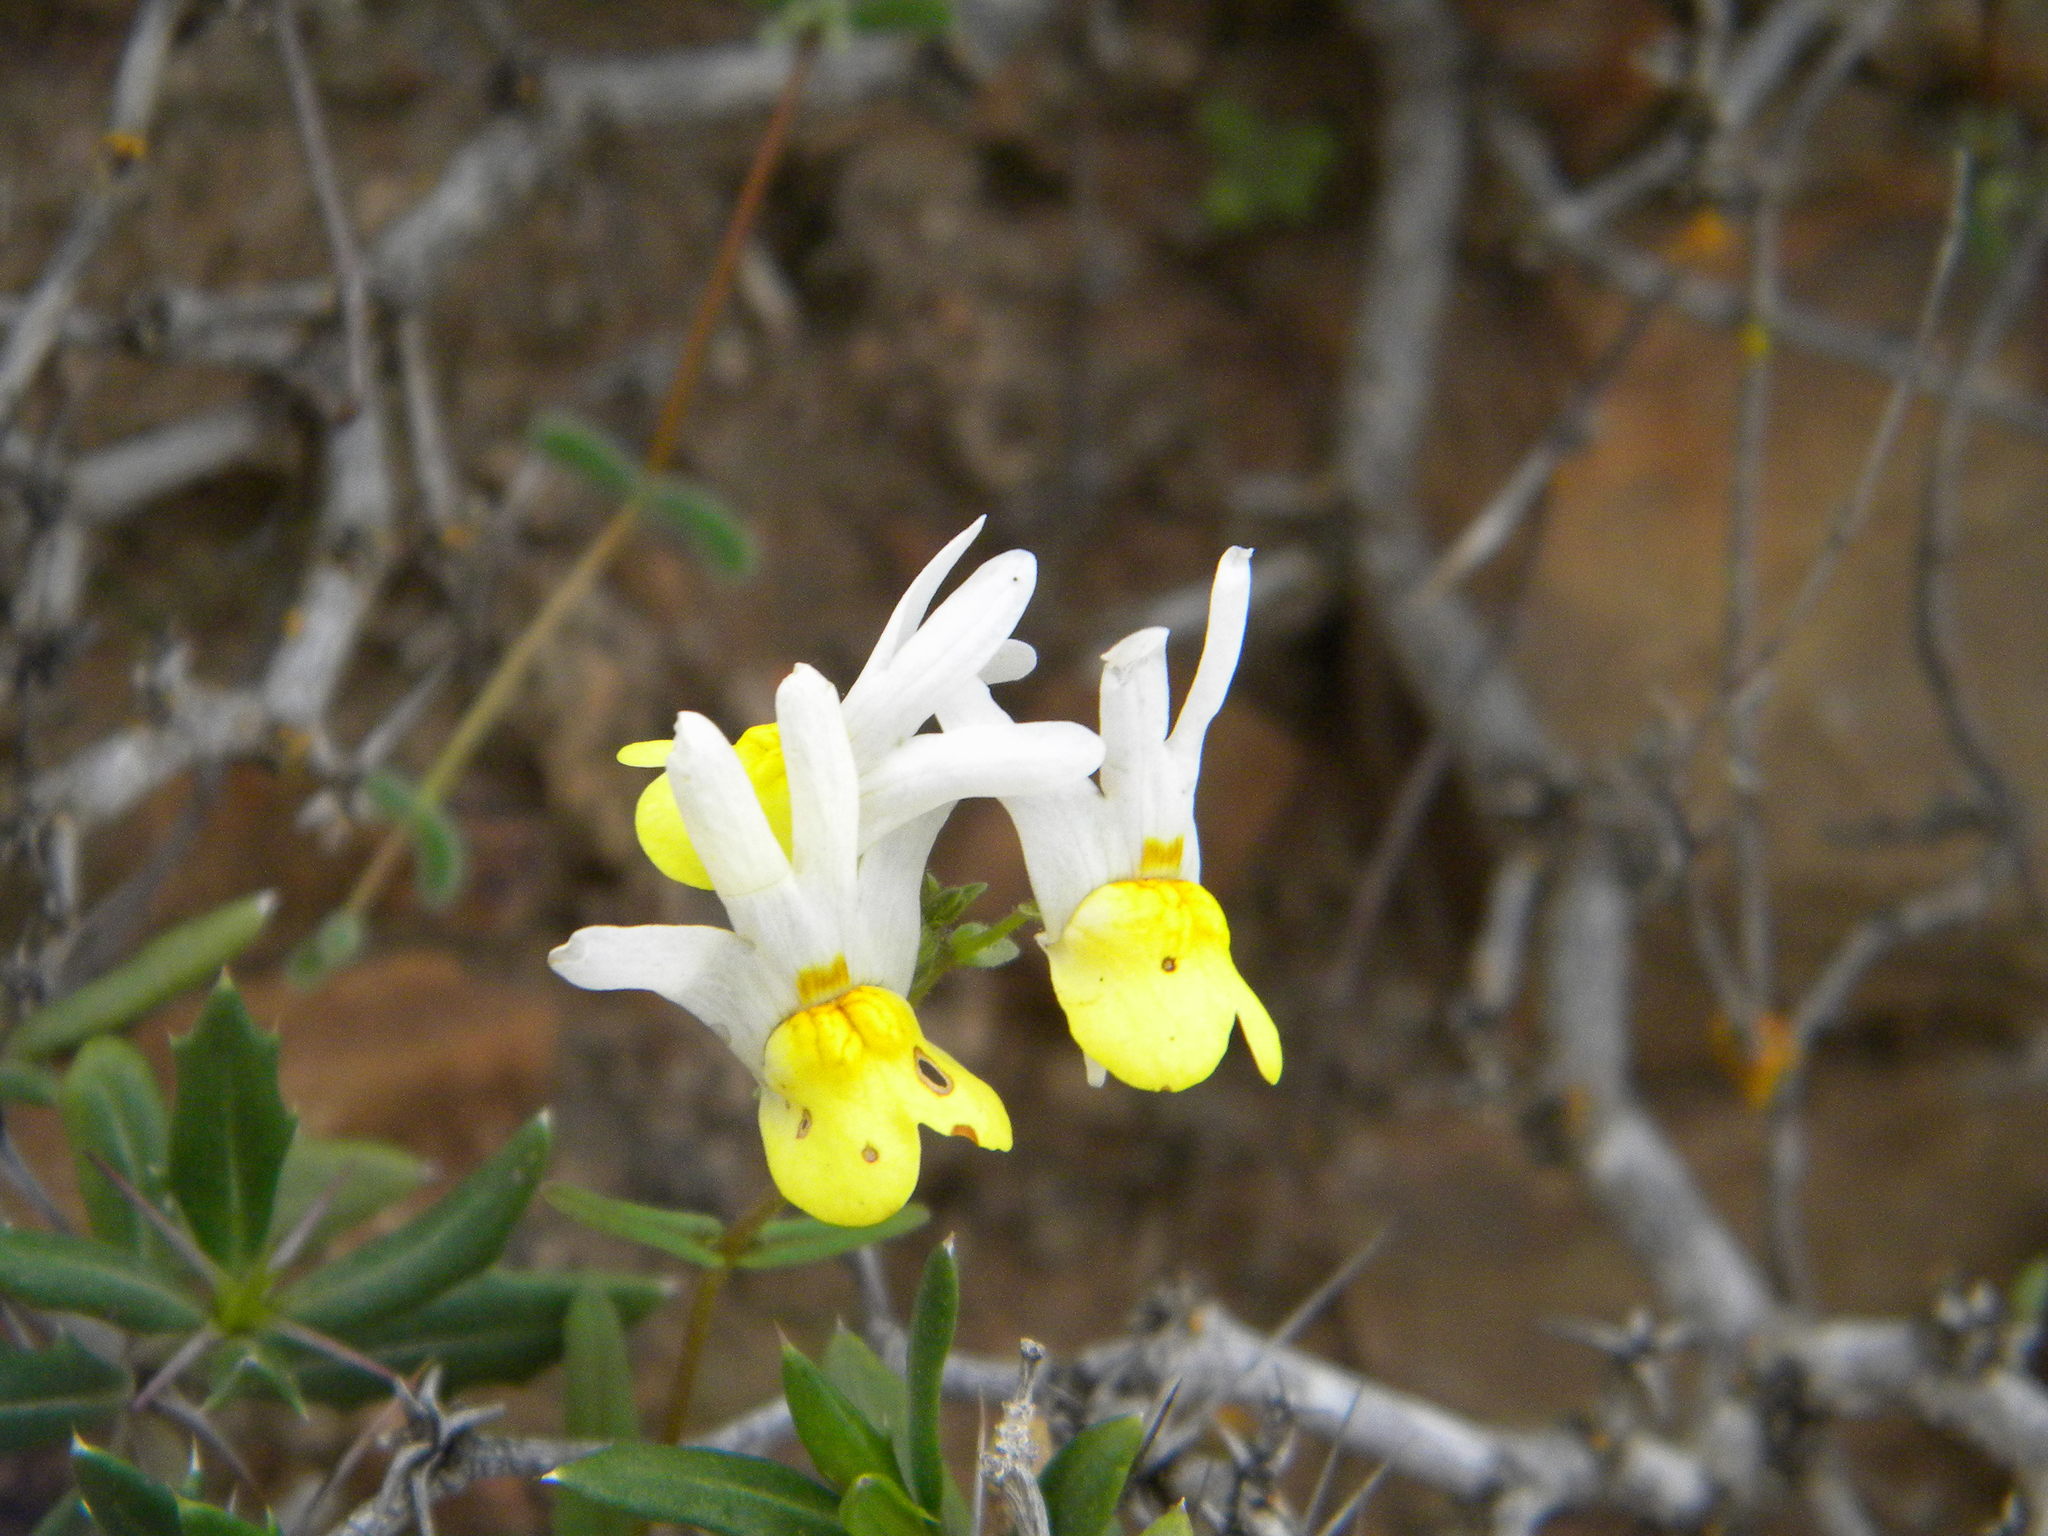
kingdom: Plantae
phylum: Tracheophyta
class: Magnoliopsida
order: Lamiales
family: Scrophulariaceae
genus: Nemesia
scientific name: Nemesia anisocarpa
